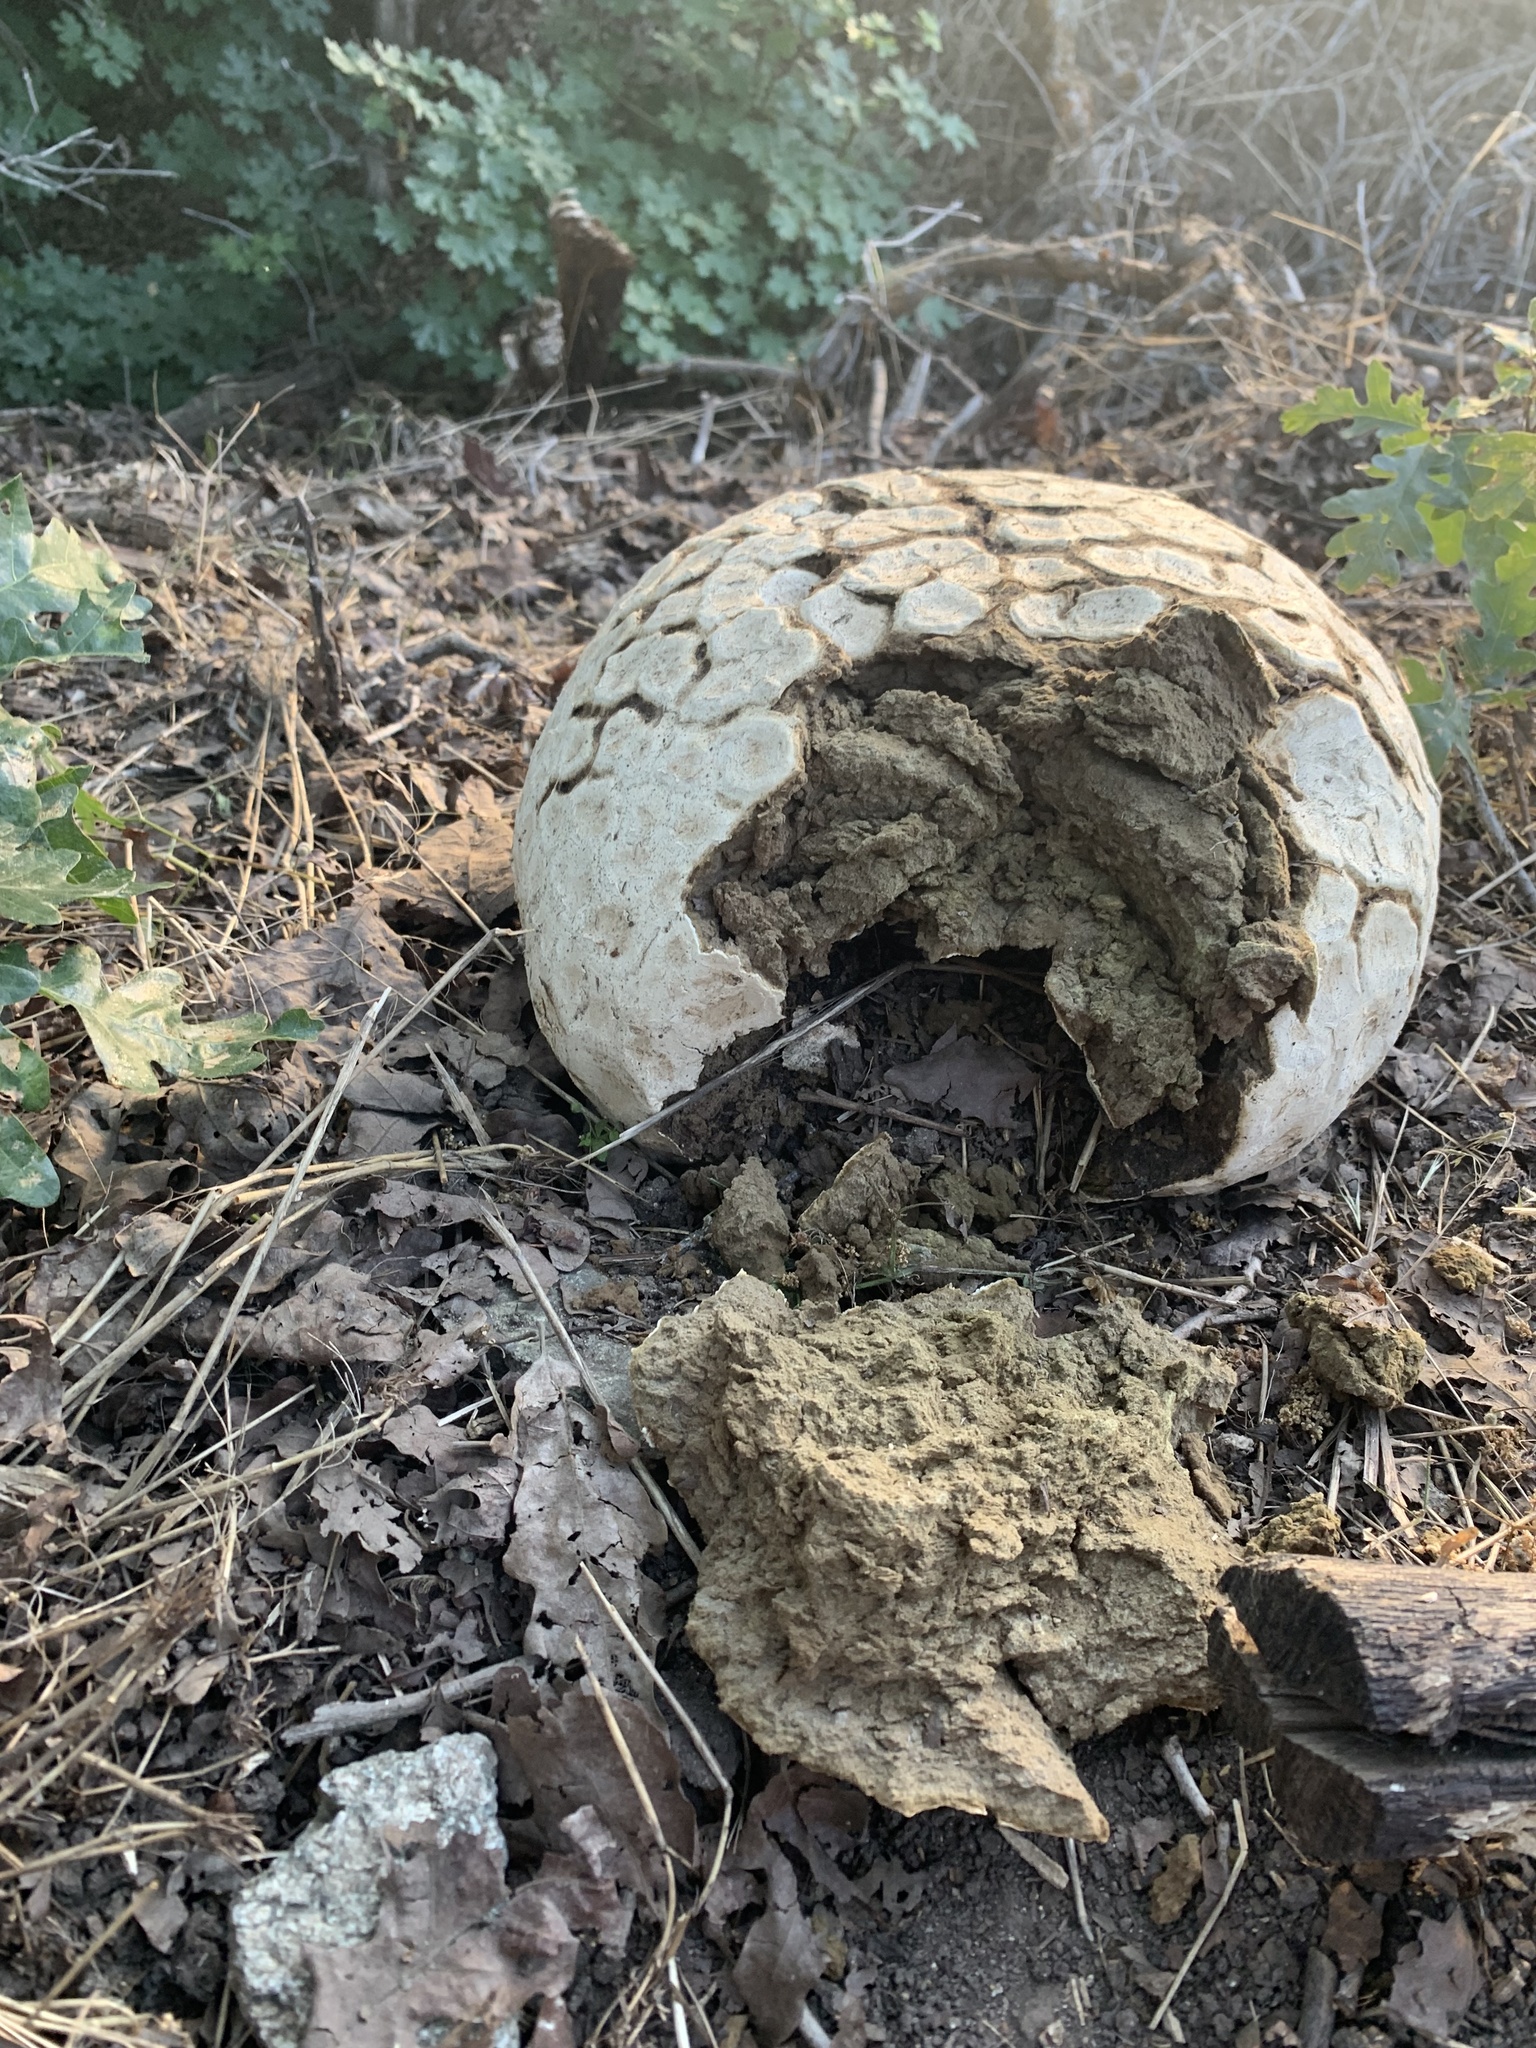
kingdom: Fungi
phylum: Basidiomycota
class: Agaricomycetes
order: Agaricales
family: Lycoperdaceae
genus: Calvatia
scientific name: Calvatia booniana
